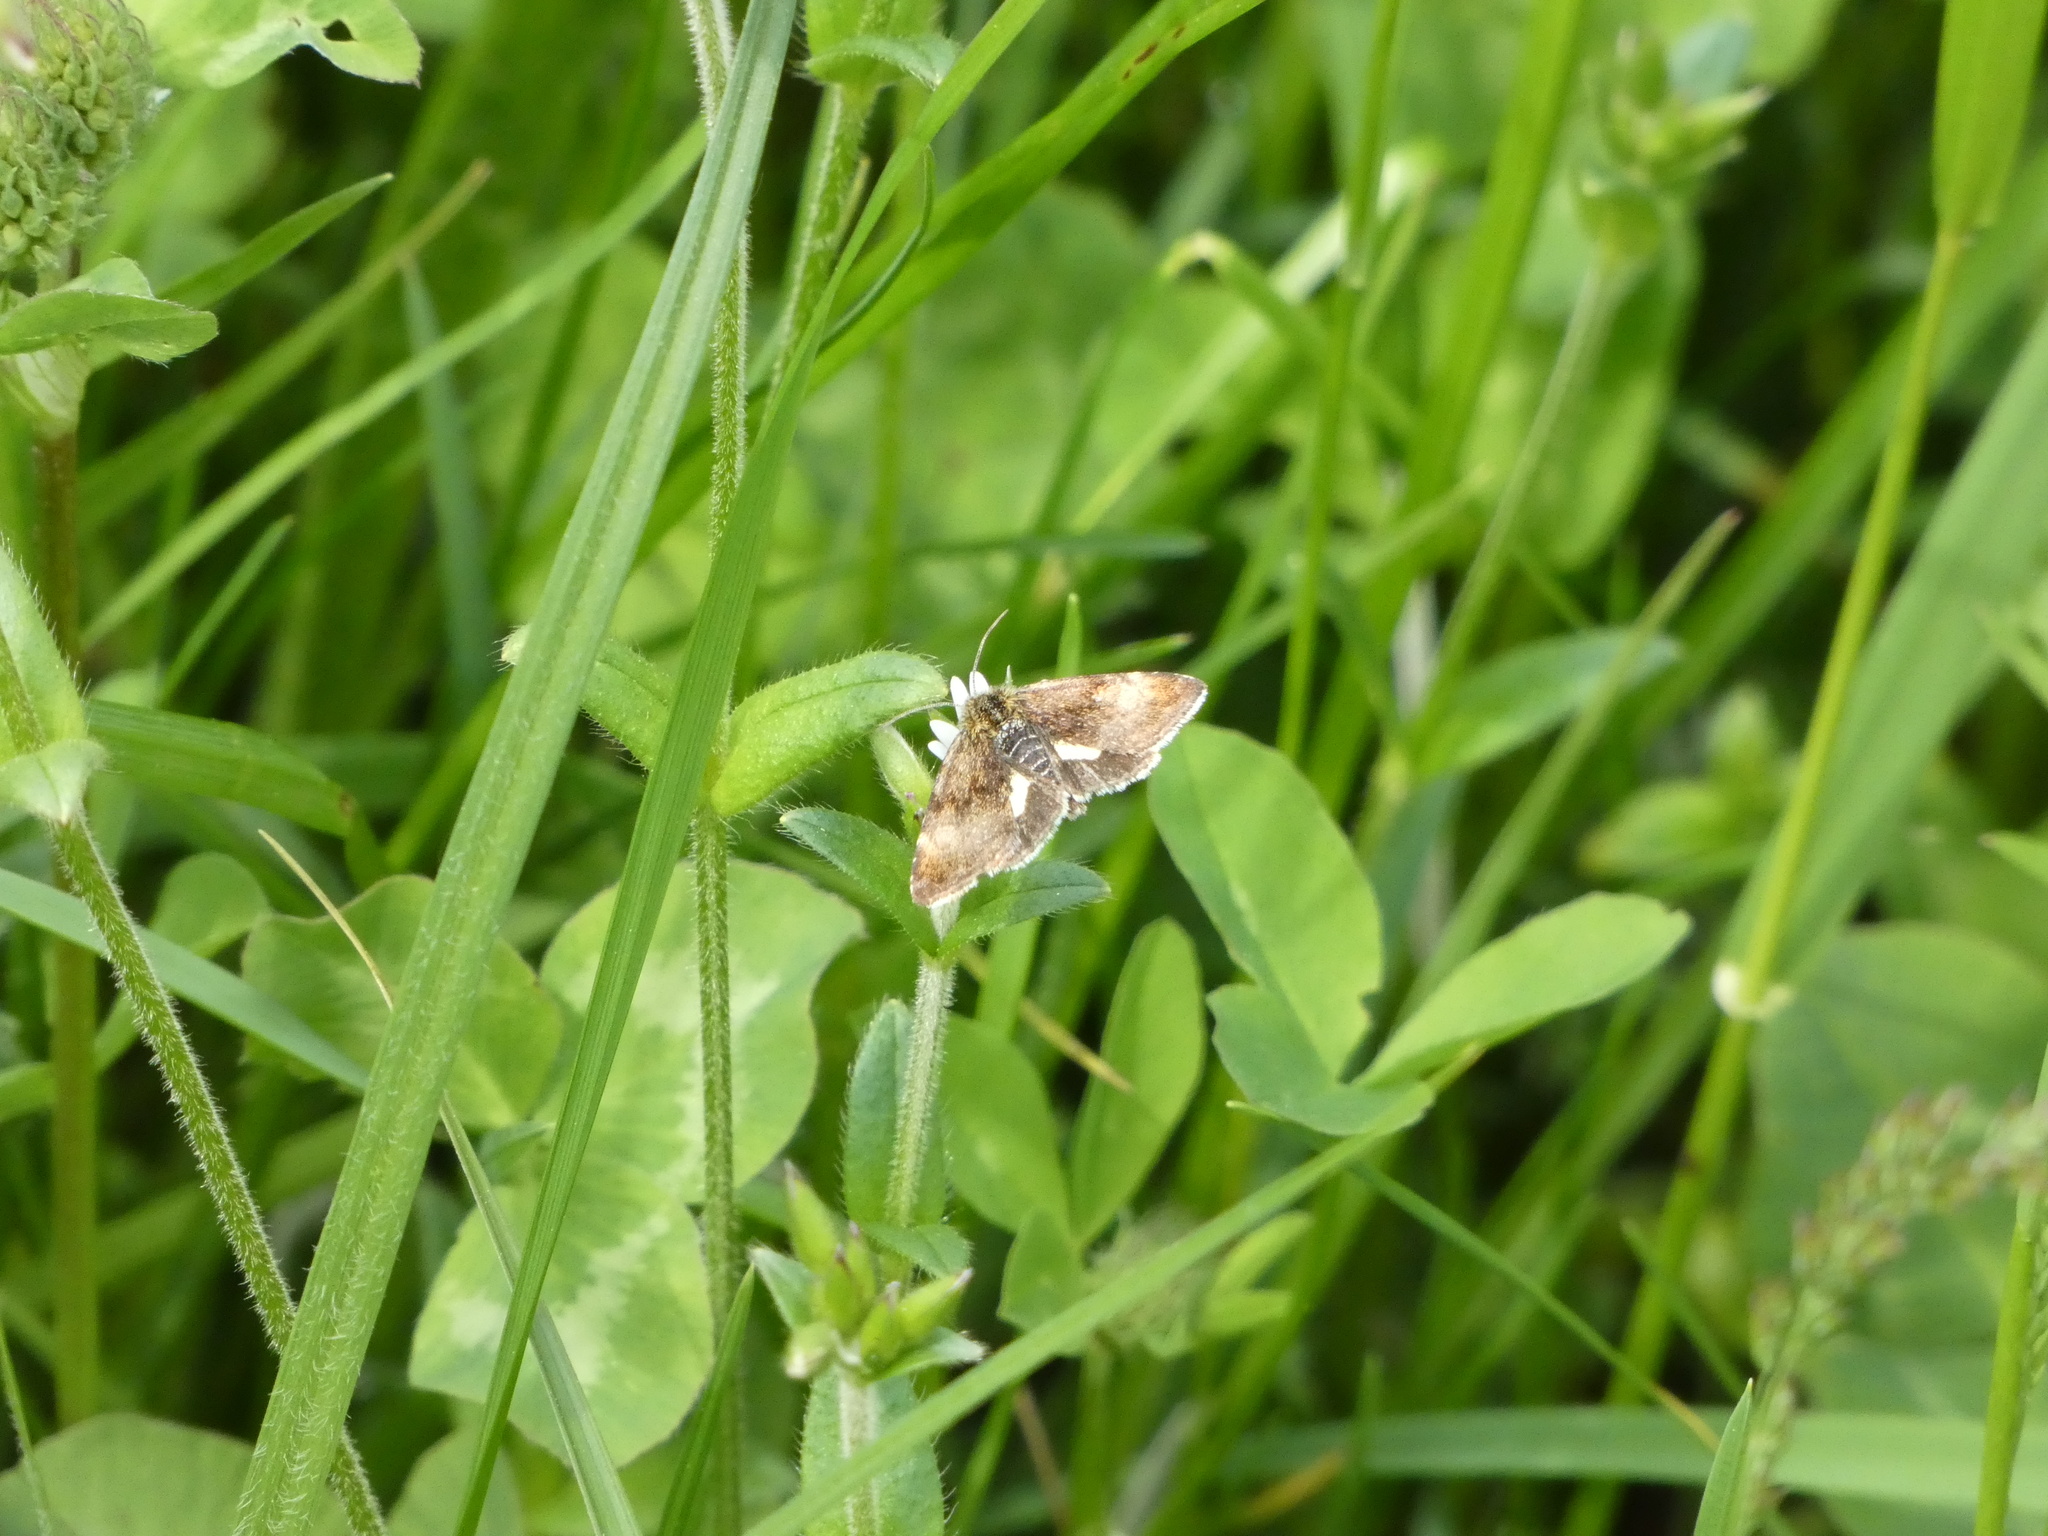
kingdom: Animalia
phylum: Arthropoda
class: Insecta
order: Lepidoptera
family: Noctuidae
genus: Panemeria
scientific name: Panemeria tenebrata
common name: Small yellow underwing
